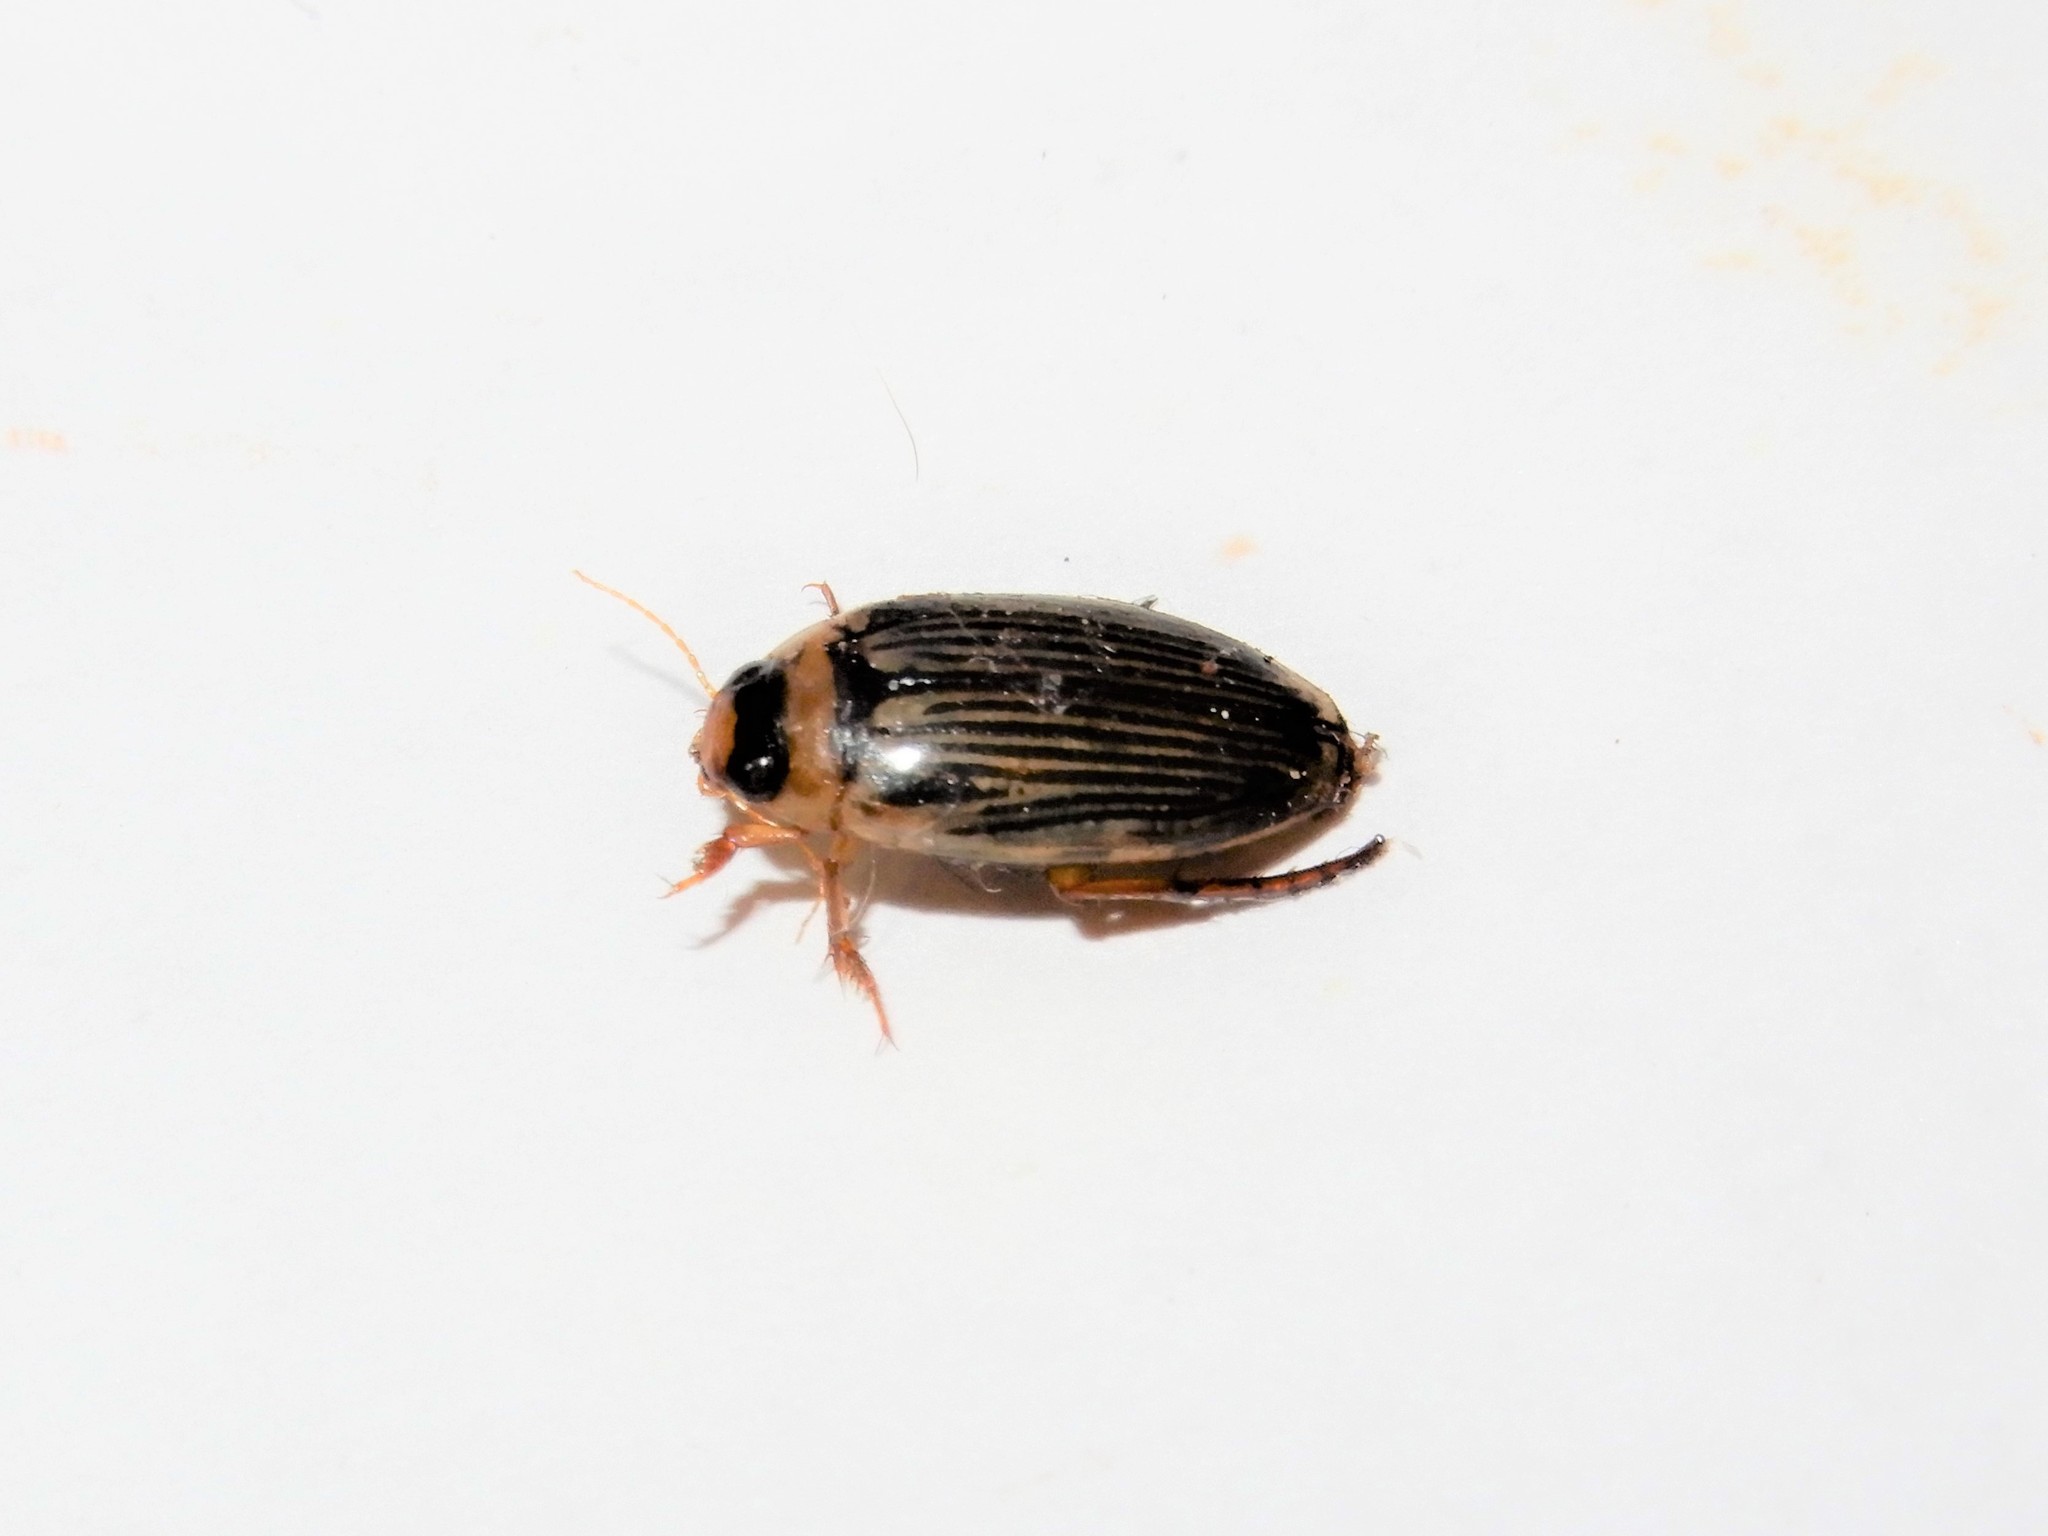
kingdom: Animalia
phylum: Arthropoda
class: Insecta
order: Coleoptera
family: Dytiscidae
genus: Lancetes
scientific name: Lancetes lanceolatus
